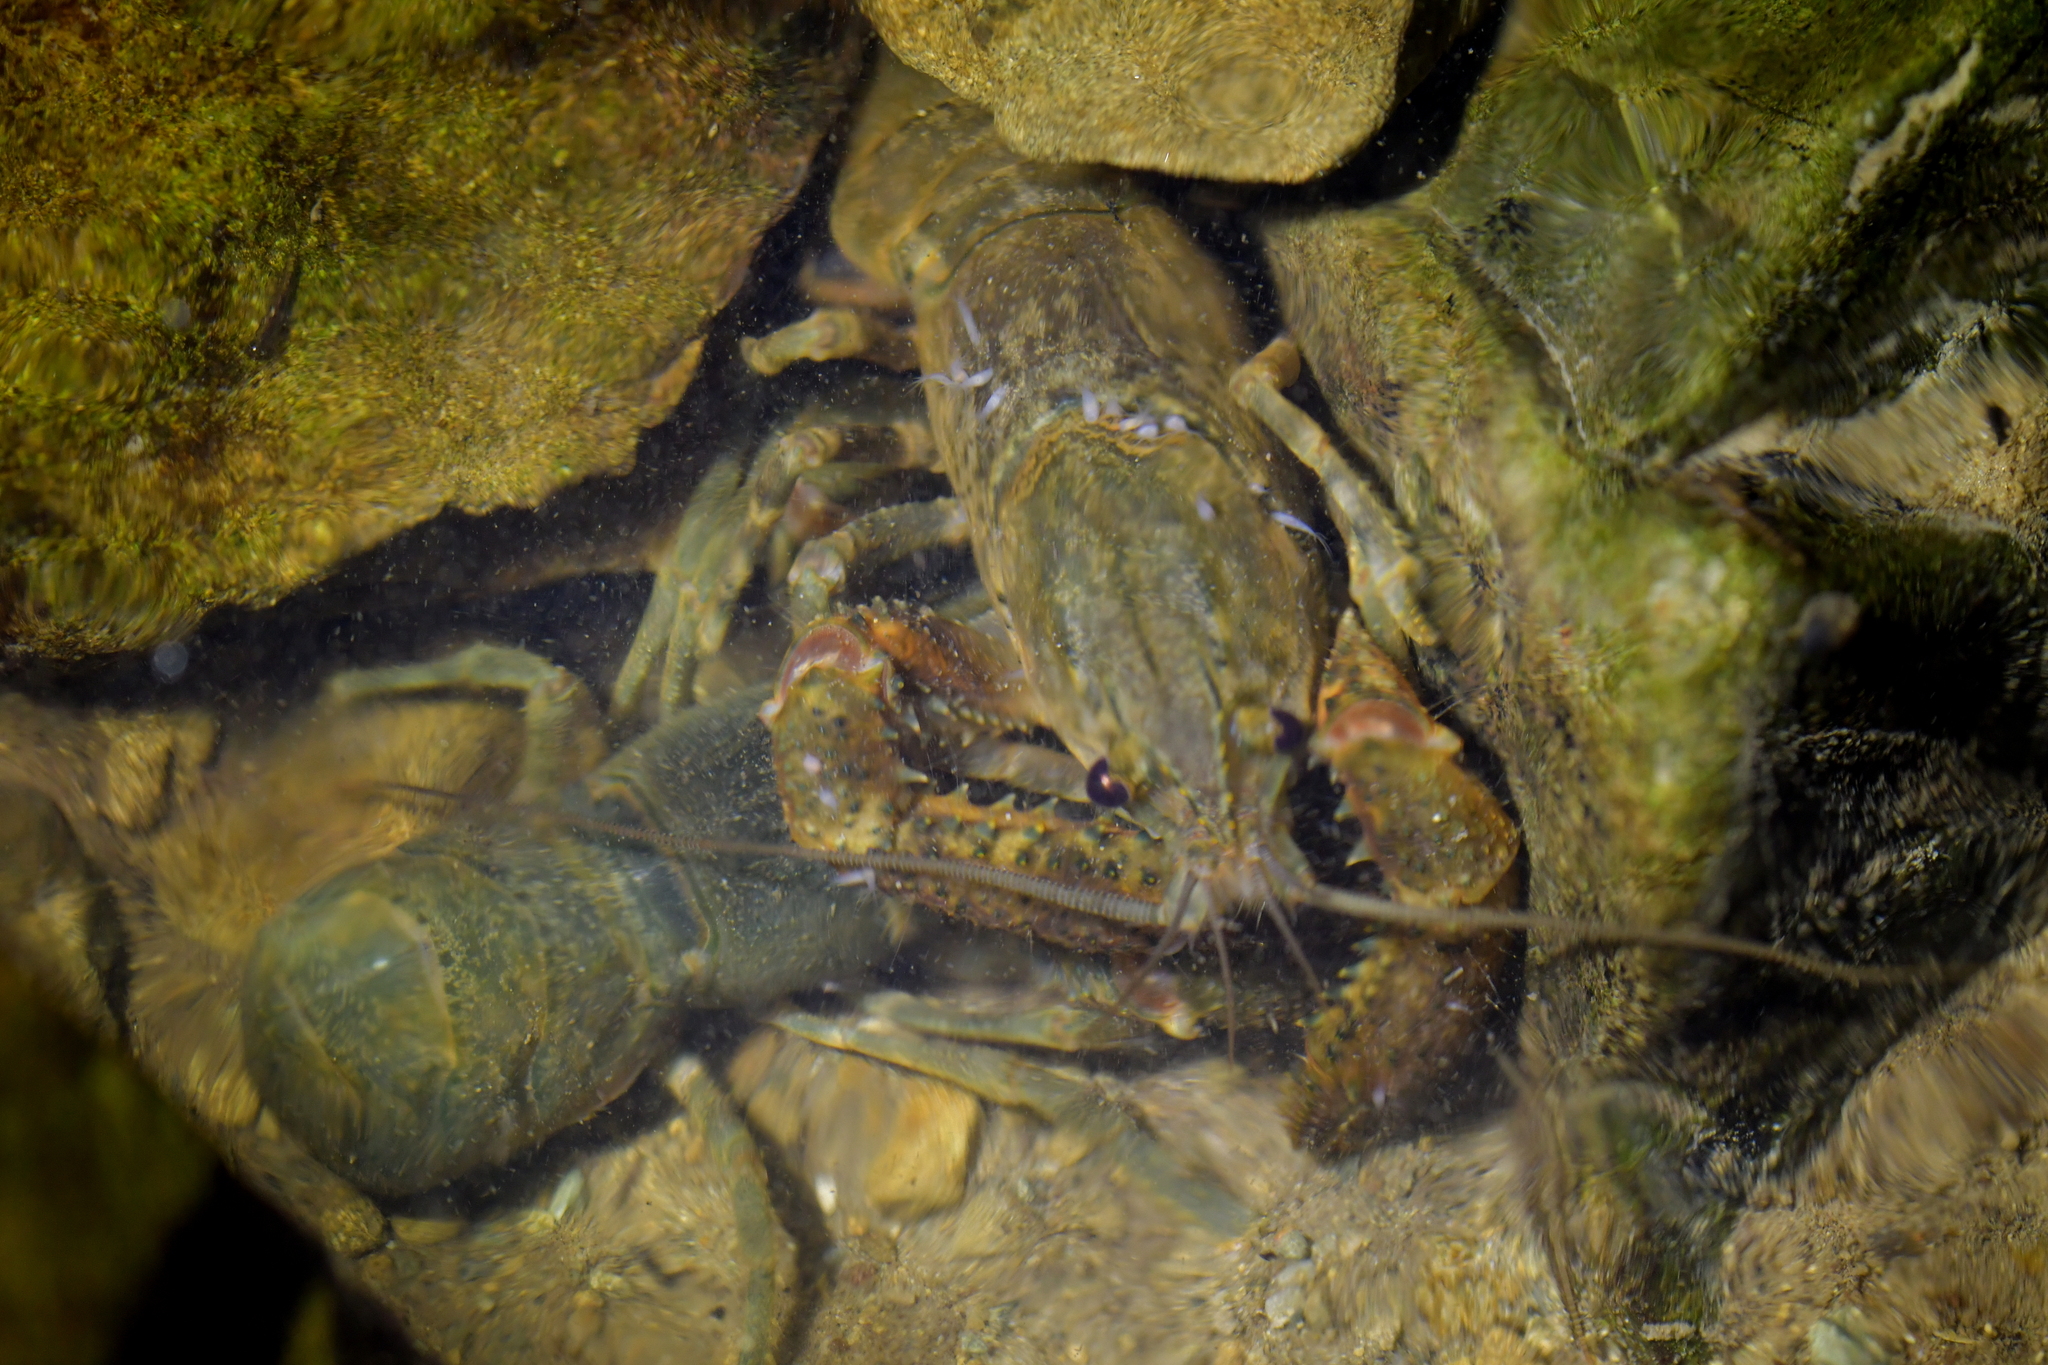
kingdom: Animalia
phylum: Arthropoda
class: Malacostraca
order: Decapoda
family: Parastacidae
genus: Paranephrops
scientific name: Paranephrops planifrons
